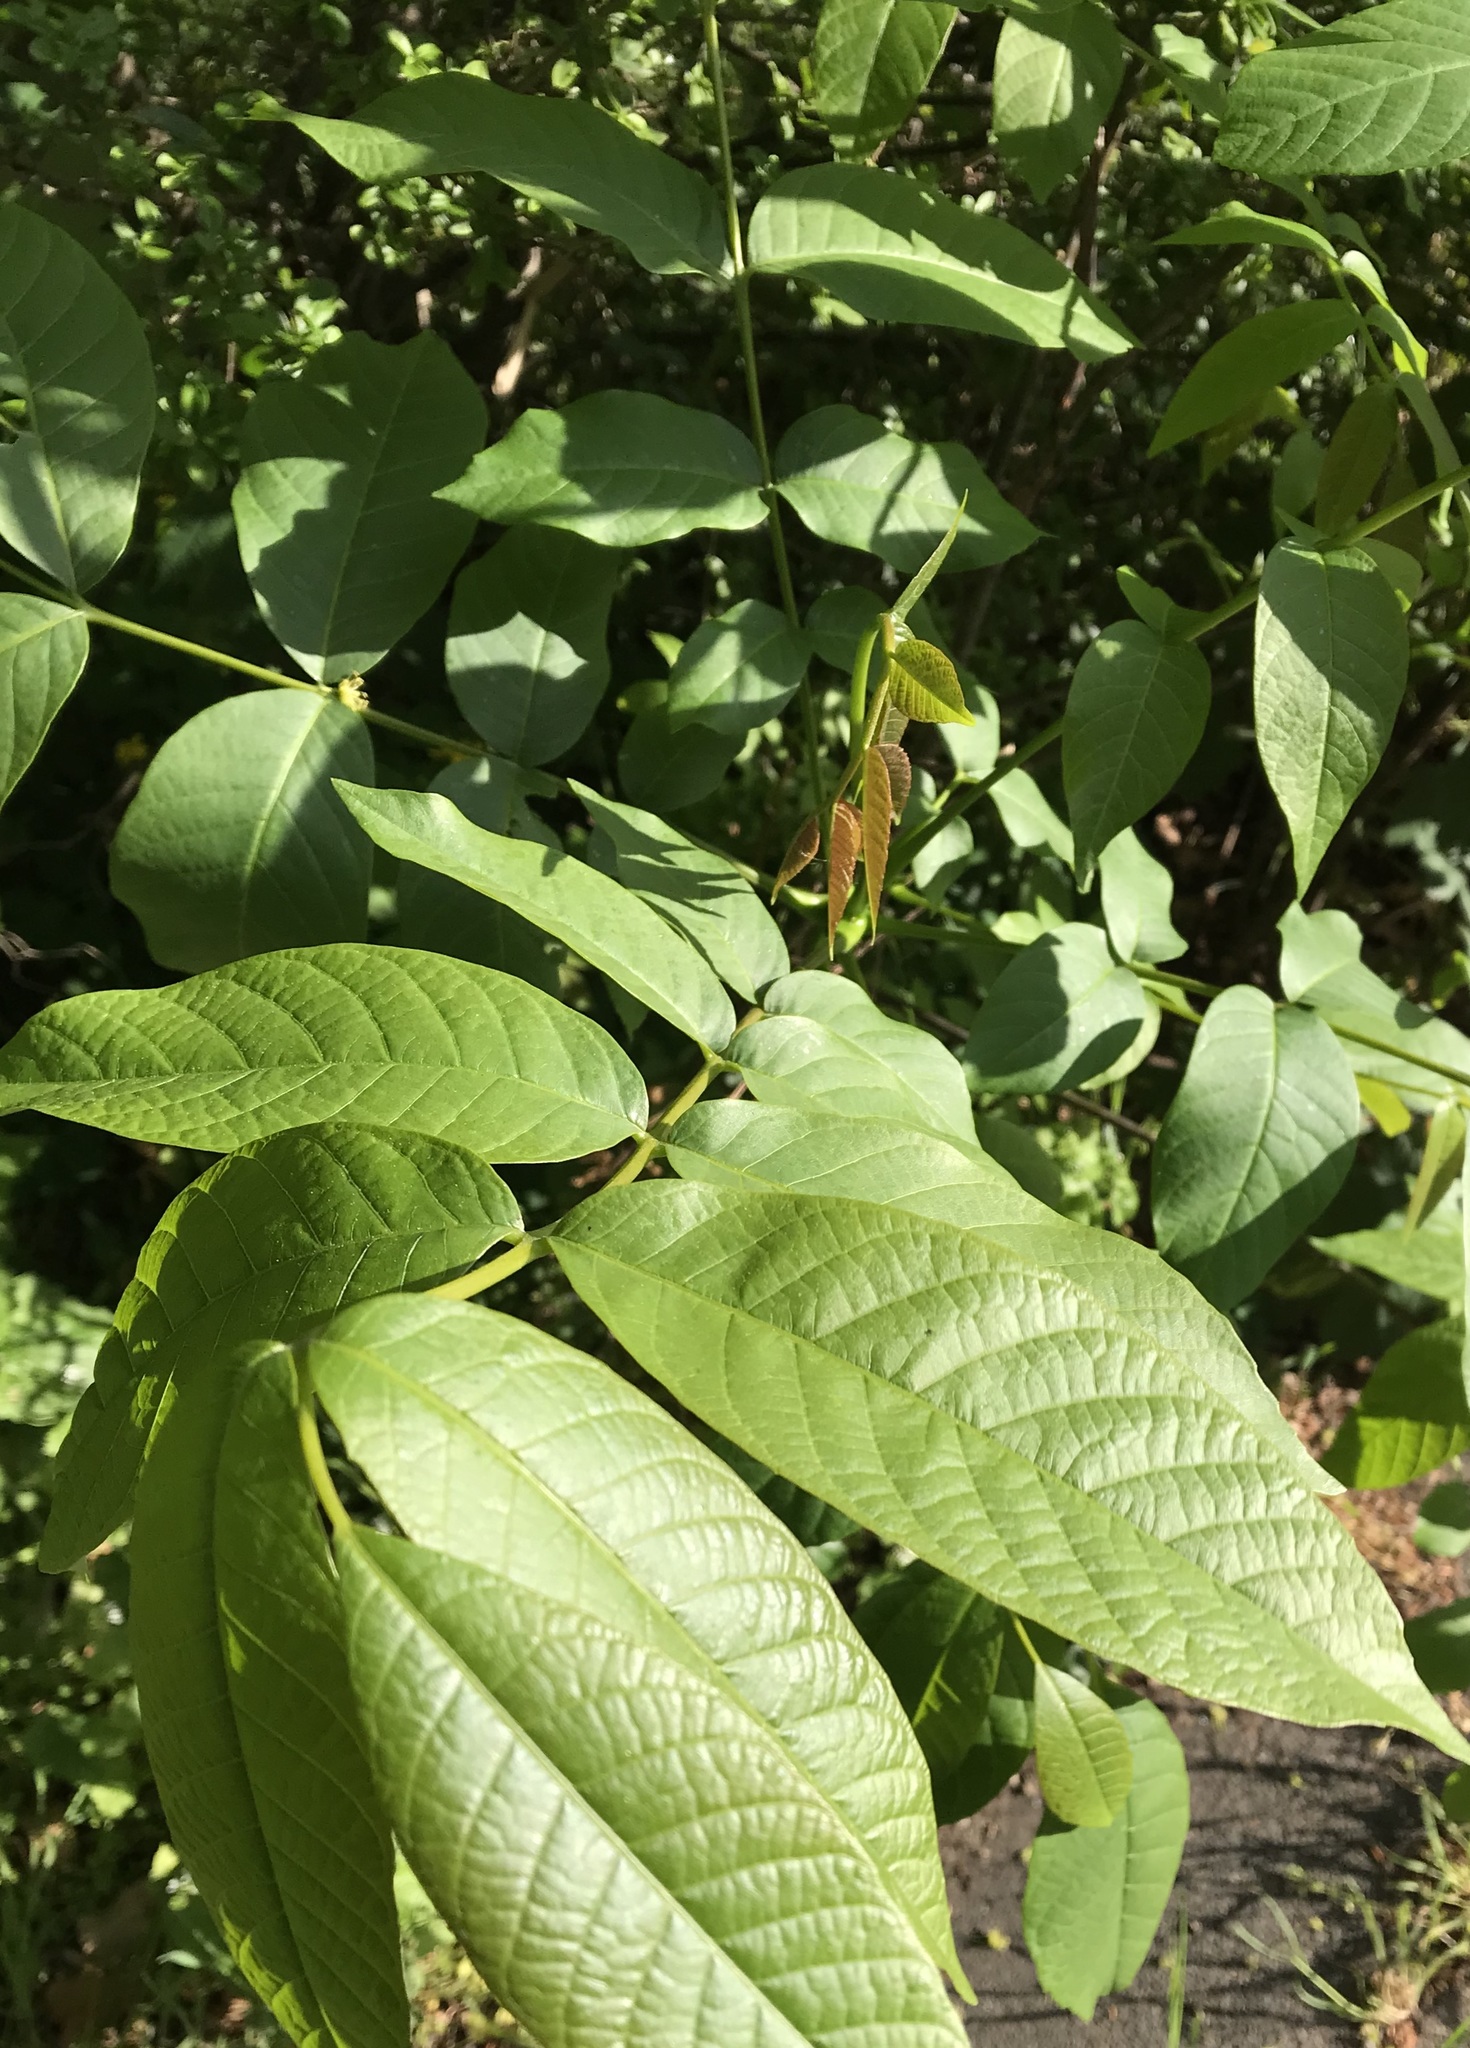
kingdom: Plantae
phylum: Tracheophyta
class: Magnoliopsida
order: Fagales
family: Juglandaceae
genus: Juglans
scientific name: Juglans regia
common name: Walnut
